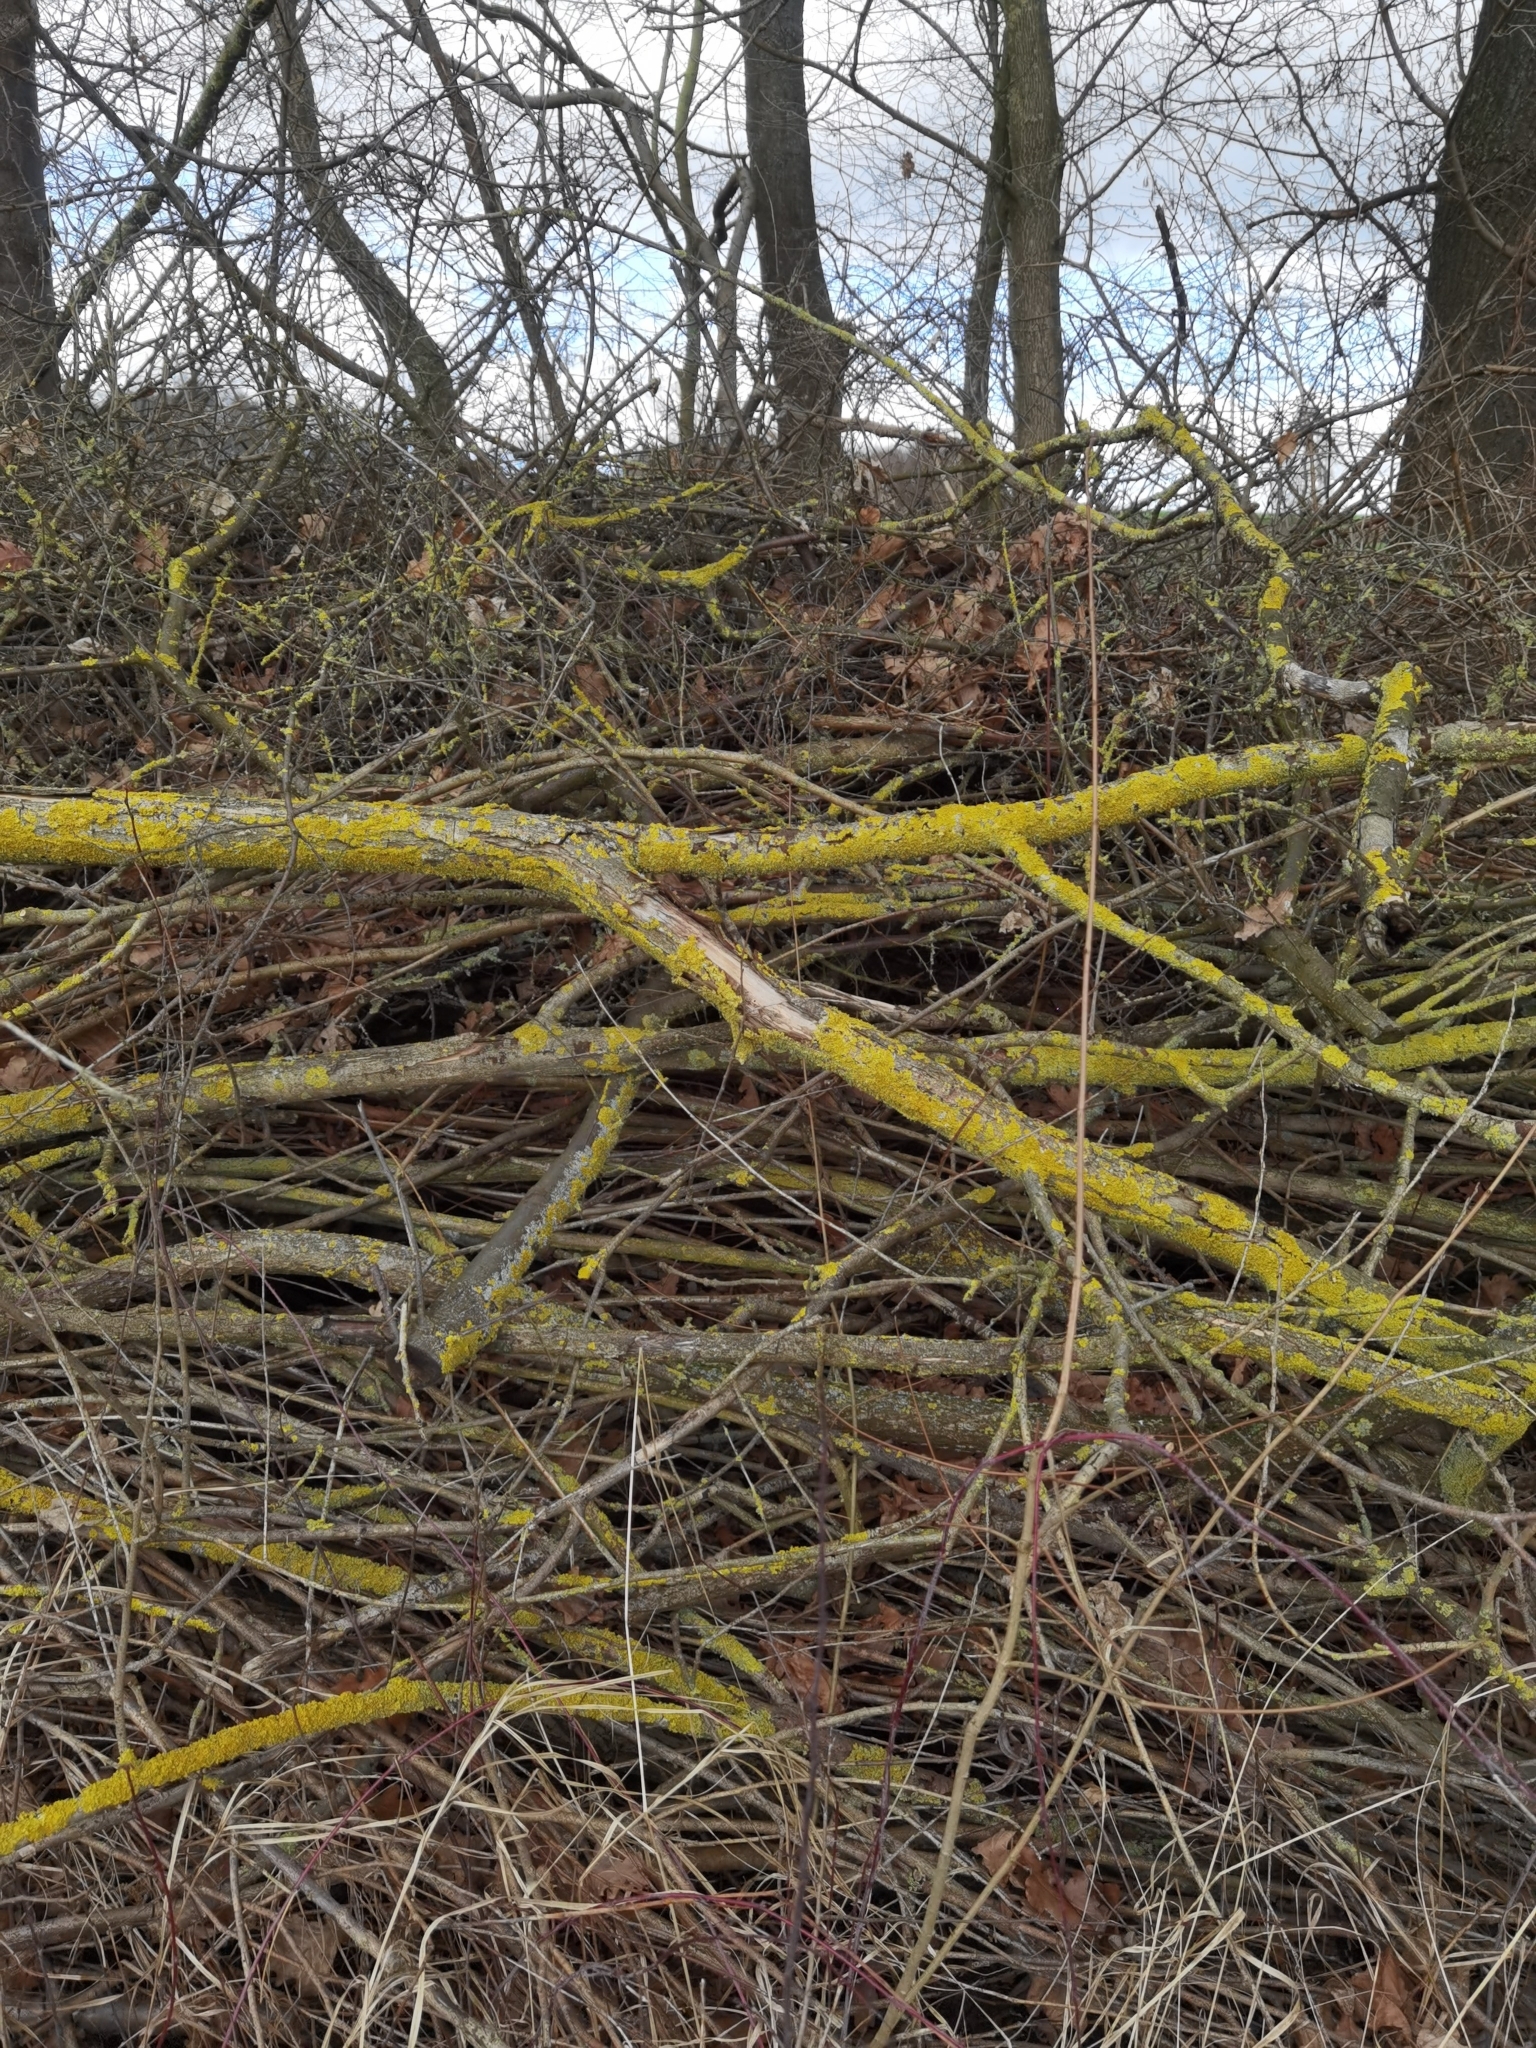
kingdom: Fungi
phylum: Ascomycota
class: Lecanoromycetes
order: Teloschistales
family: Teloschistaceae
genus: Xanthoria
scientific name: Xanthoria parietina
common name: Common orange lichen
